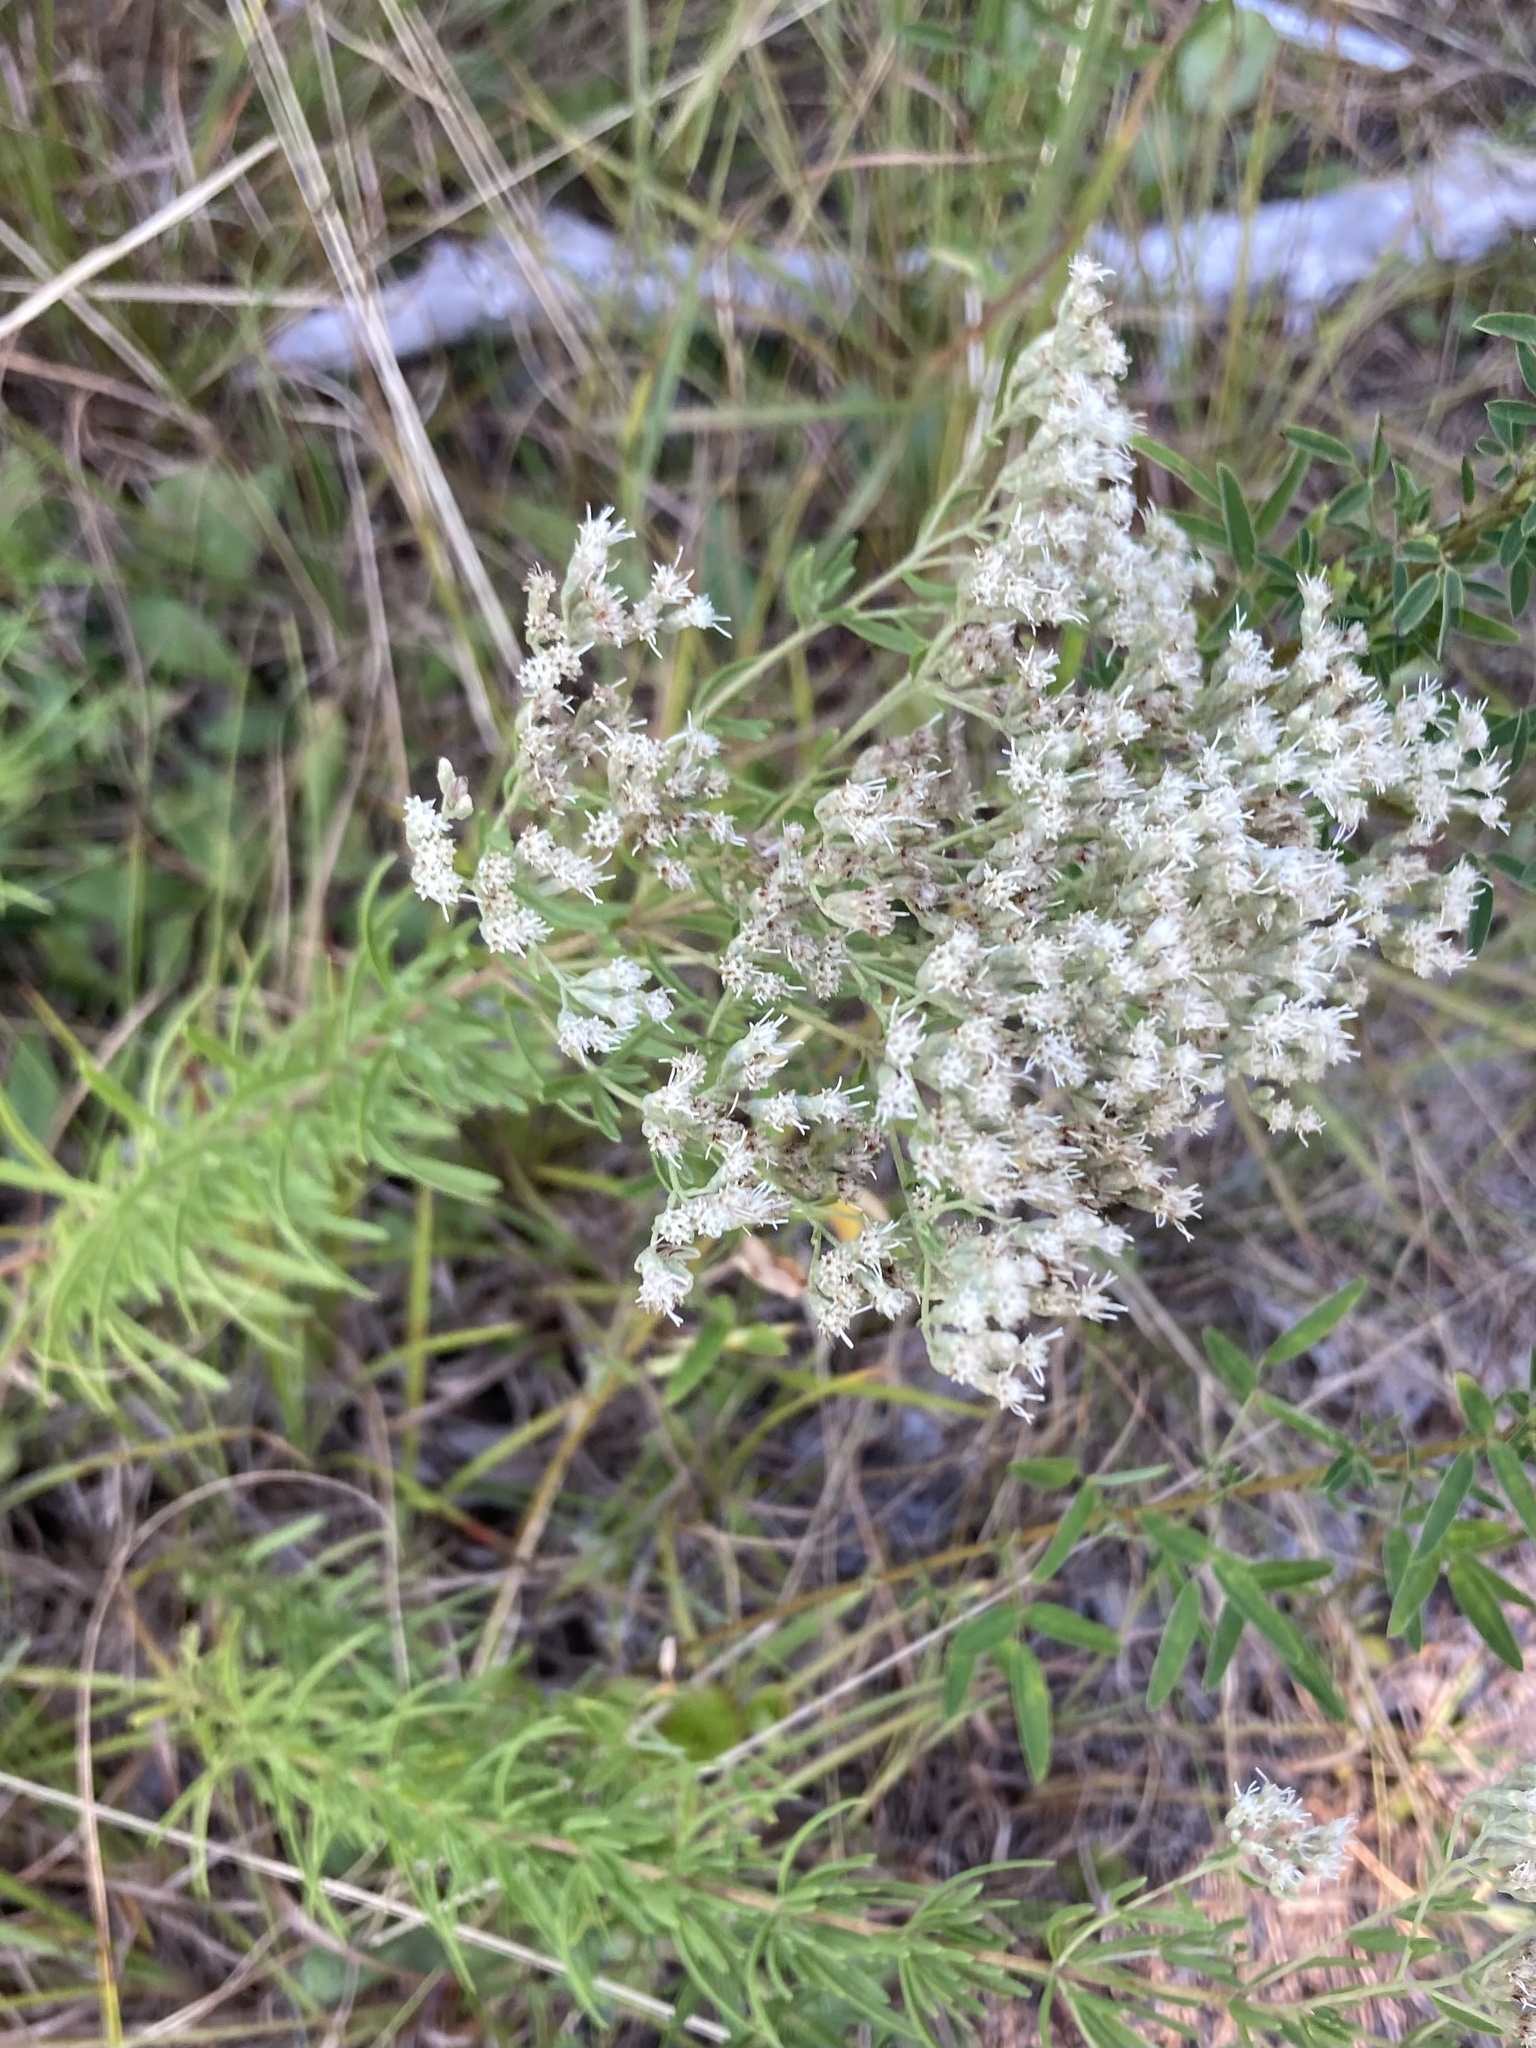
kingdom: Plantae
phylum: Tracheophyta
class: Magnoliopsida
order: Asterales
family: Asteraceae
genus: Eupatorium
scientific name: Eupatorium hyssopifolium
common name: Hyssop-leaf thoroughwort
